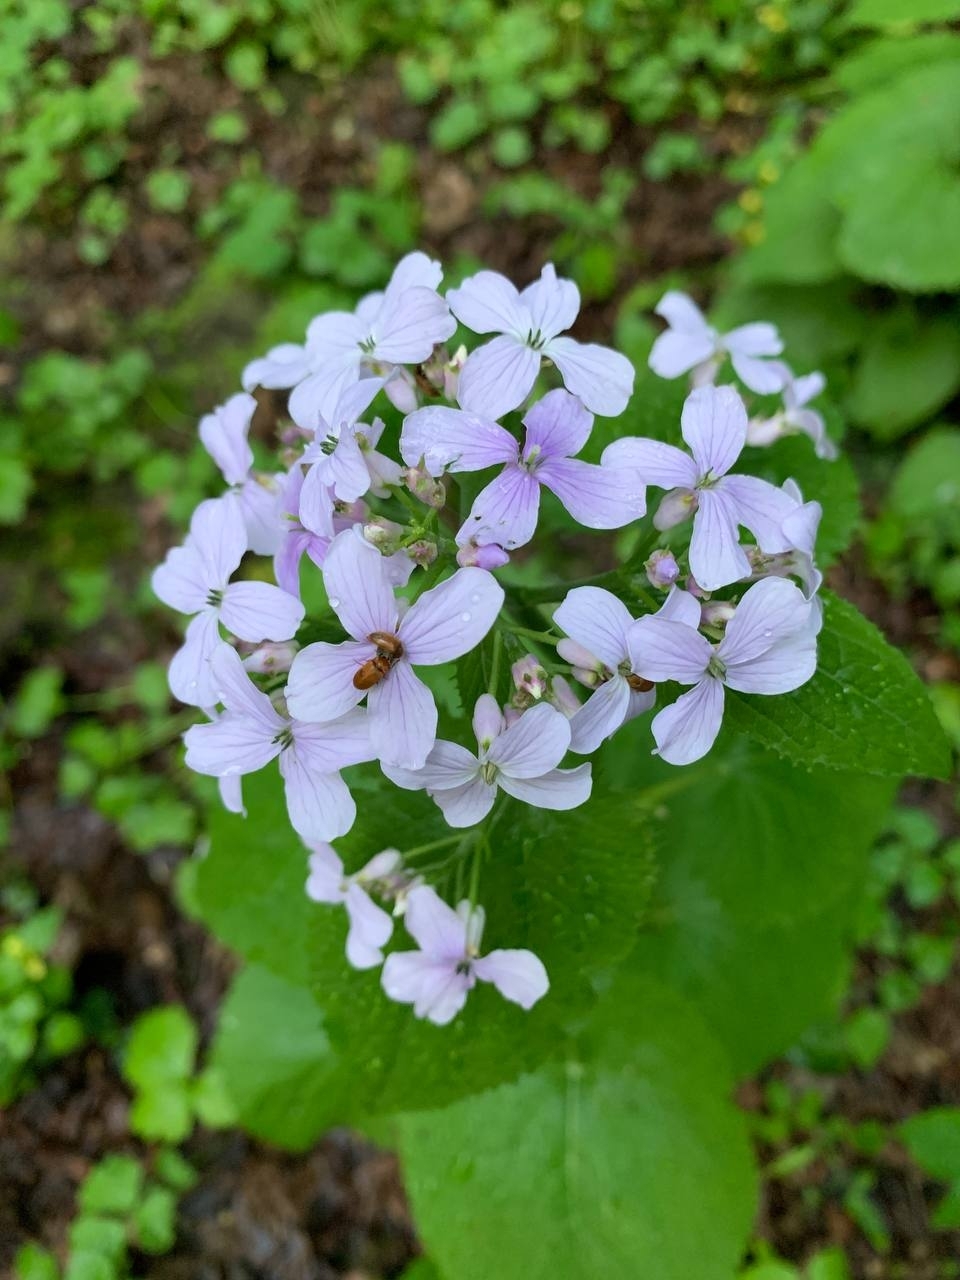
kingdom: Plantae
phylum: Tracheophyta
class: Magnoliopsida
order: Brassicales
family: Brassicaceae
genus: Lunaria
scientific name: Lunaria rediviva
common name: Perennial honesty
